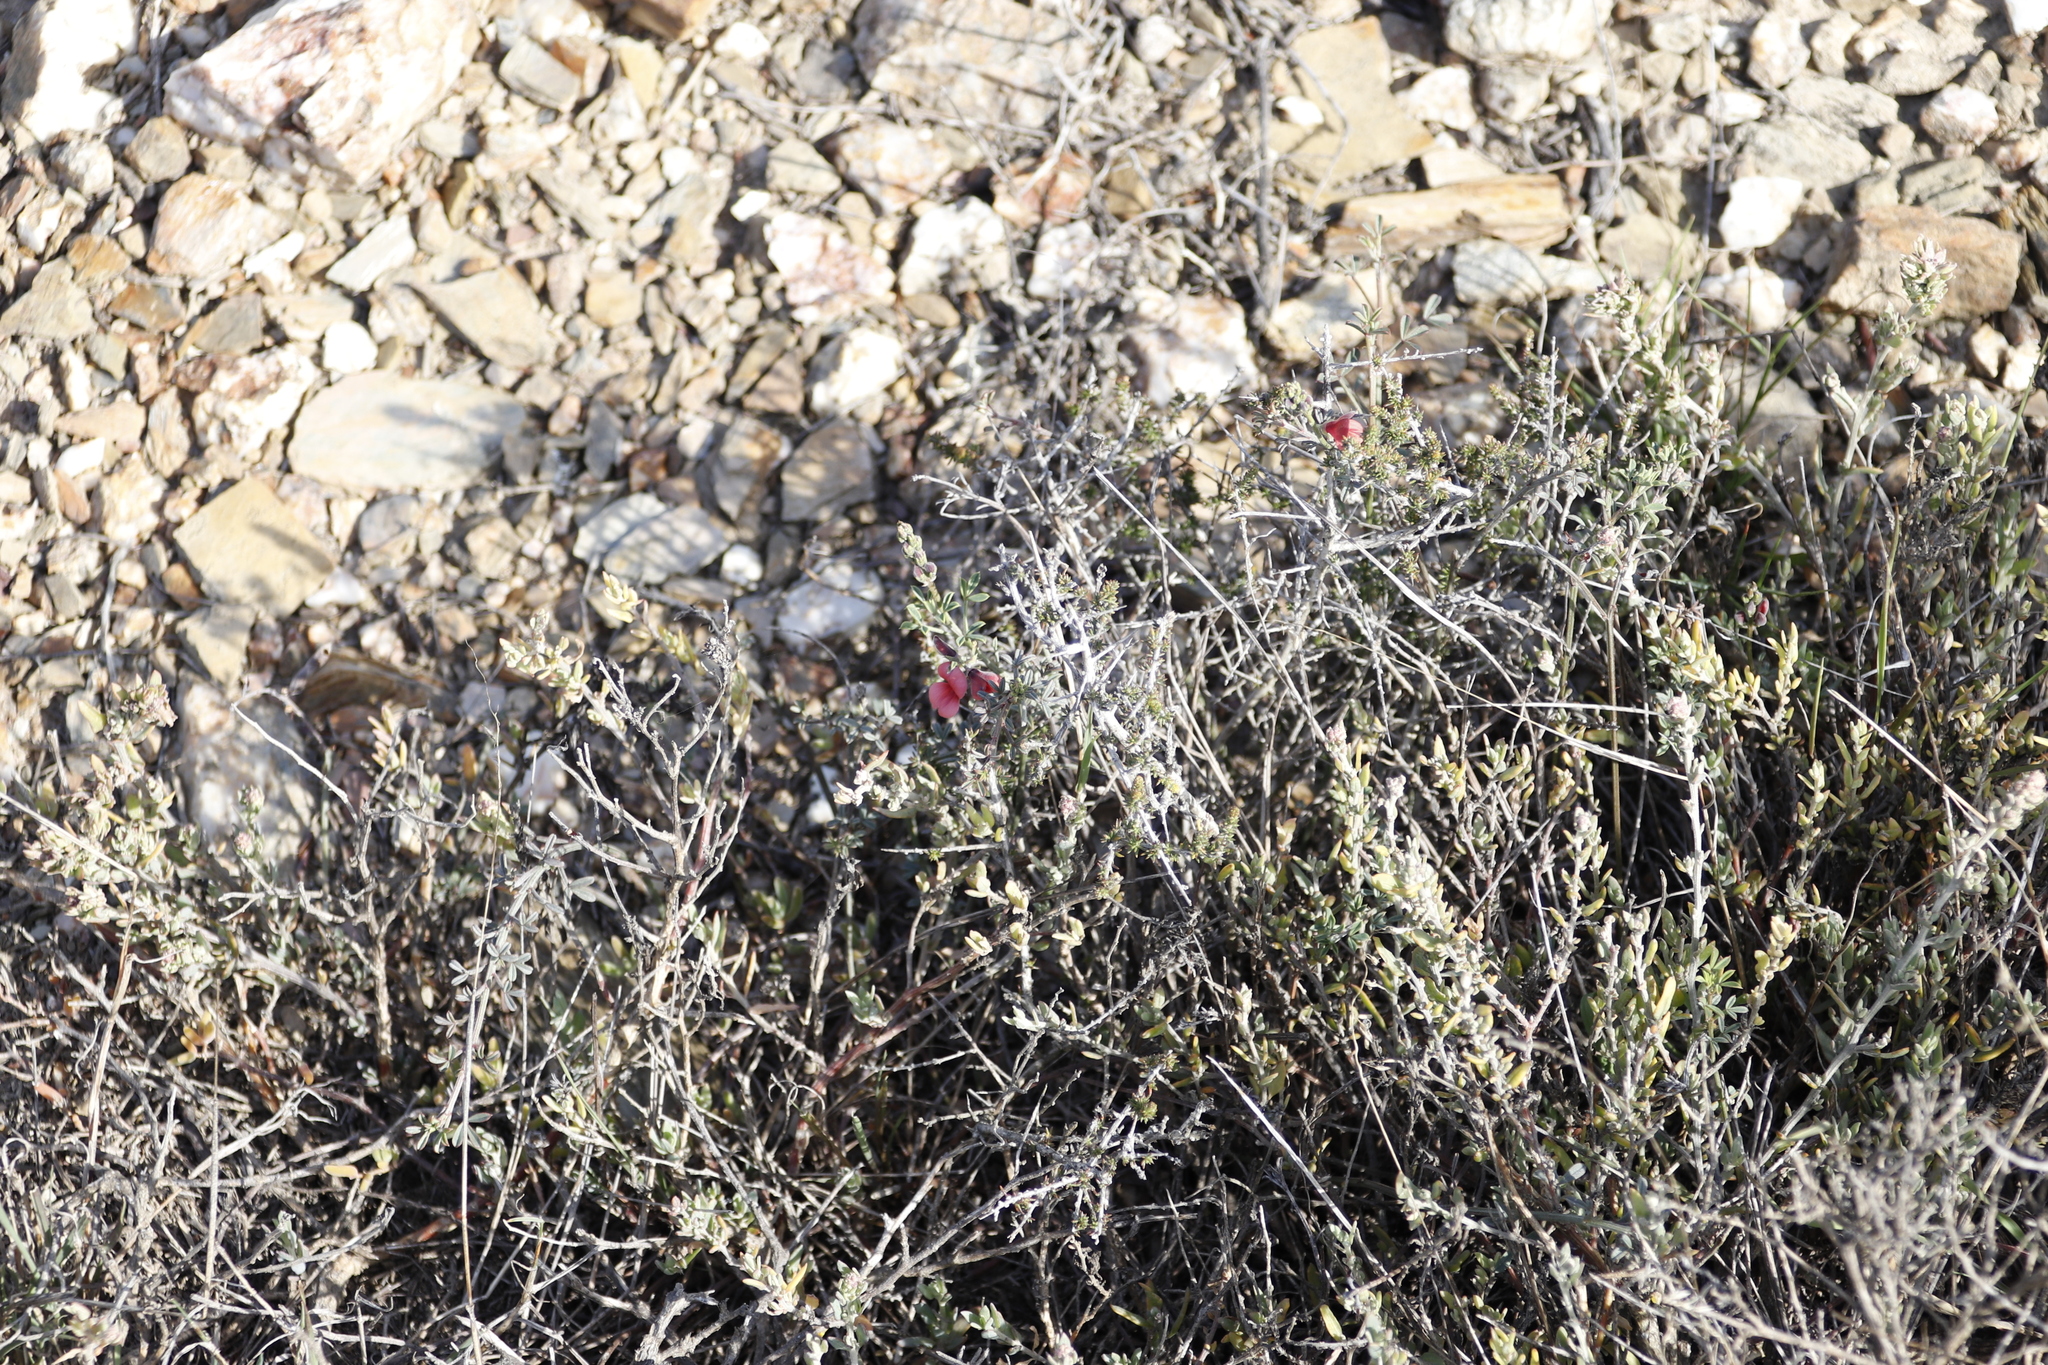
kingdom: Plantae
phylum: Tracheophyta
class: Magnoliopsida
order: Fabales
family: Fabaceae
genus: Indigofera
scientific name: Indigofera heterophylla
